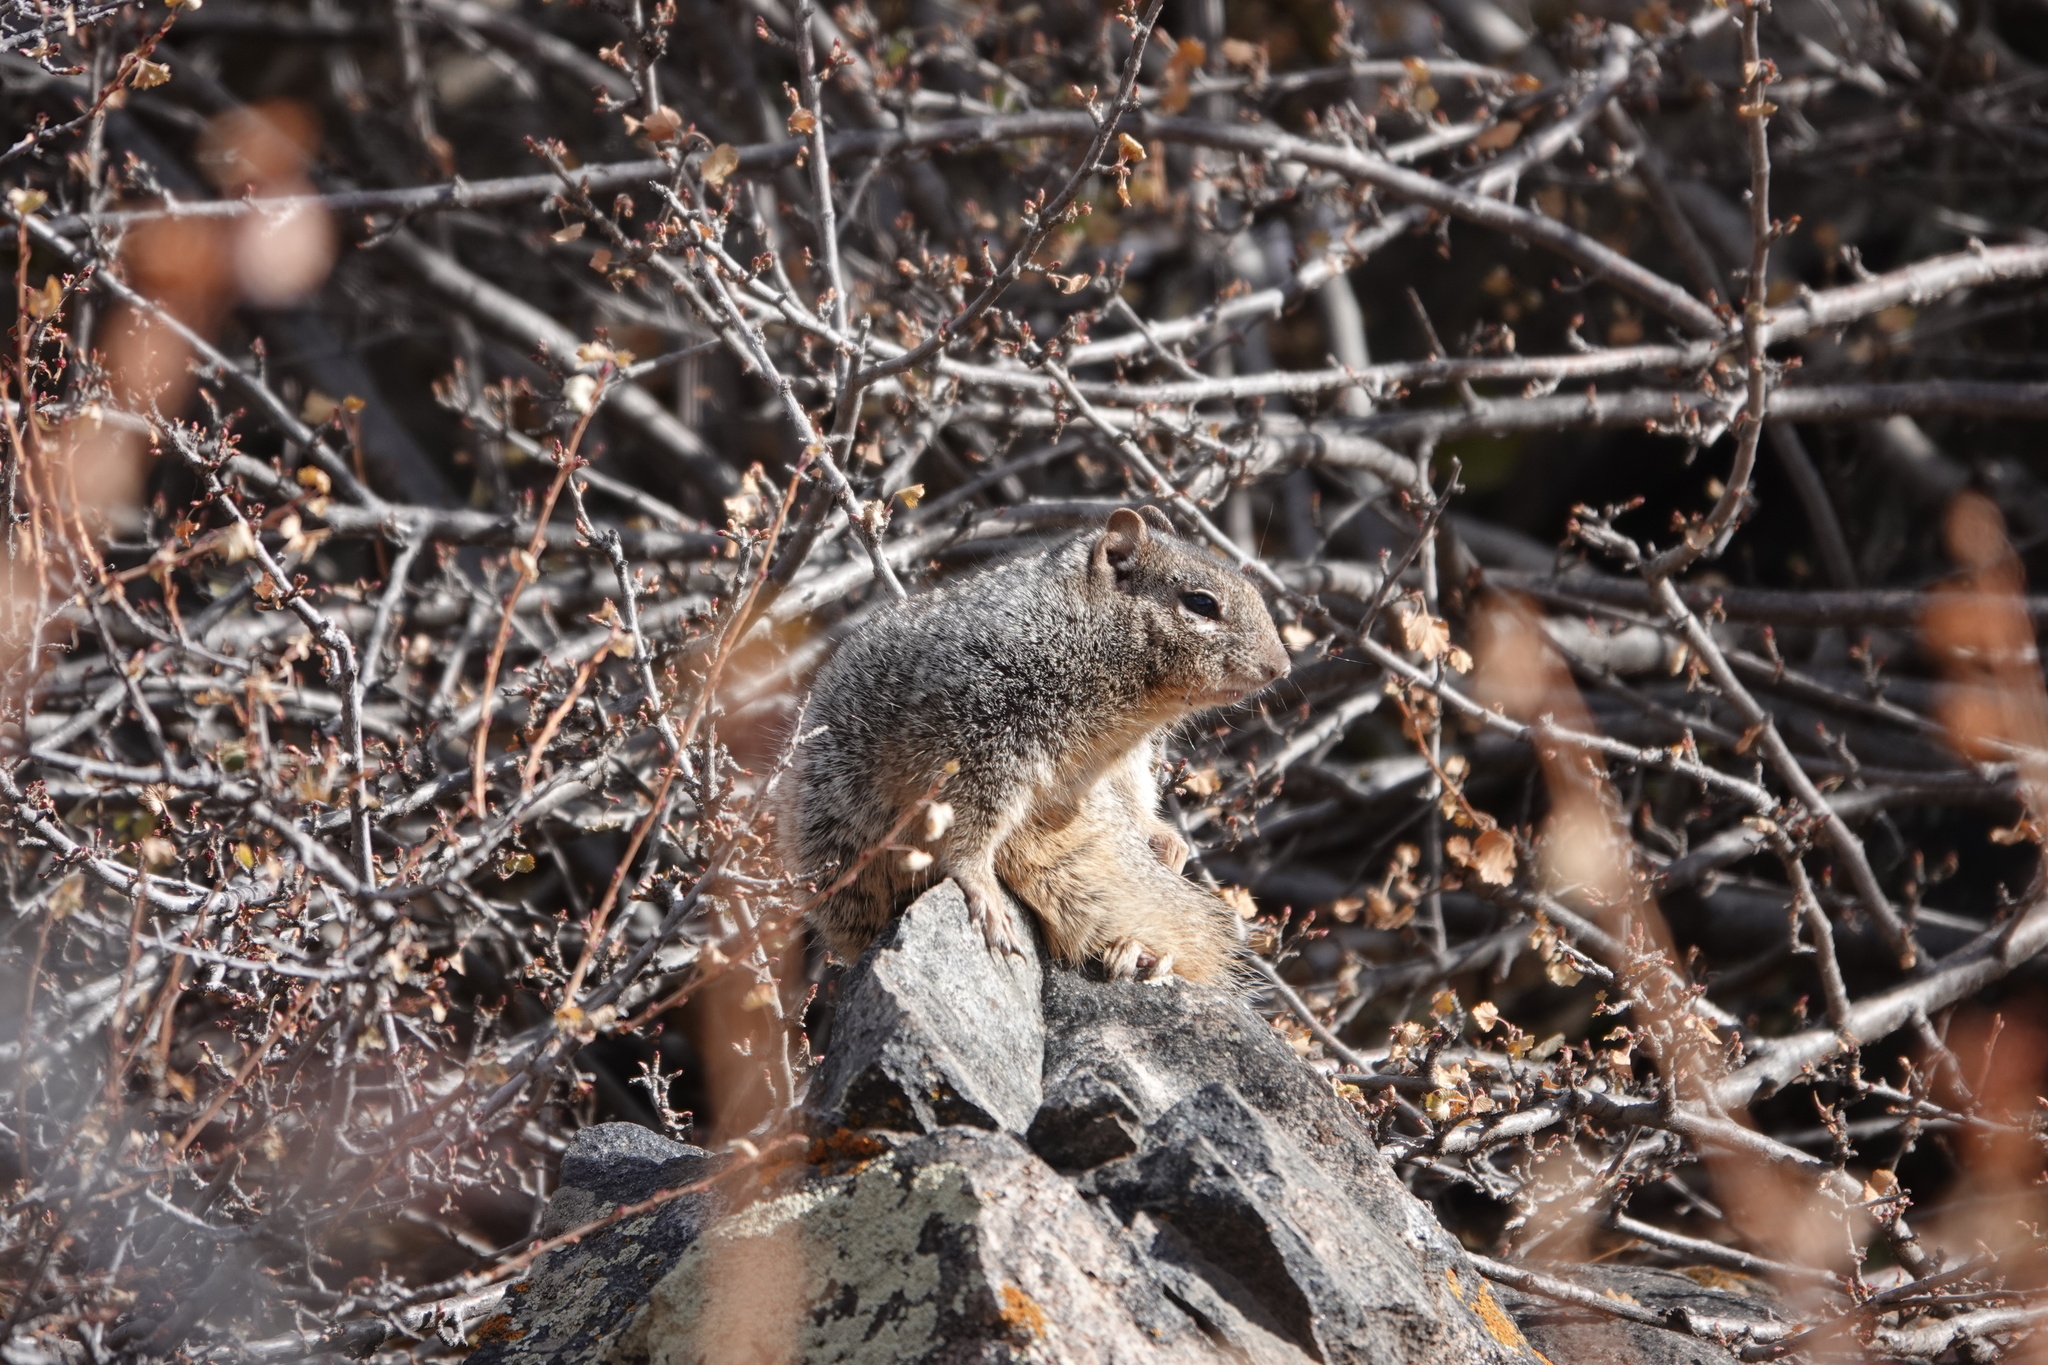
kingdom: Animalia
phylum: Chordata
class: Mammalia
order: Rodentia
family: Sciuridae
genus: Otospermophilus
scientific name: Otospermophilus variegatus
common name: Rock squirrel
